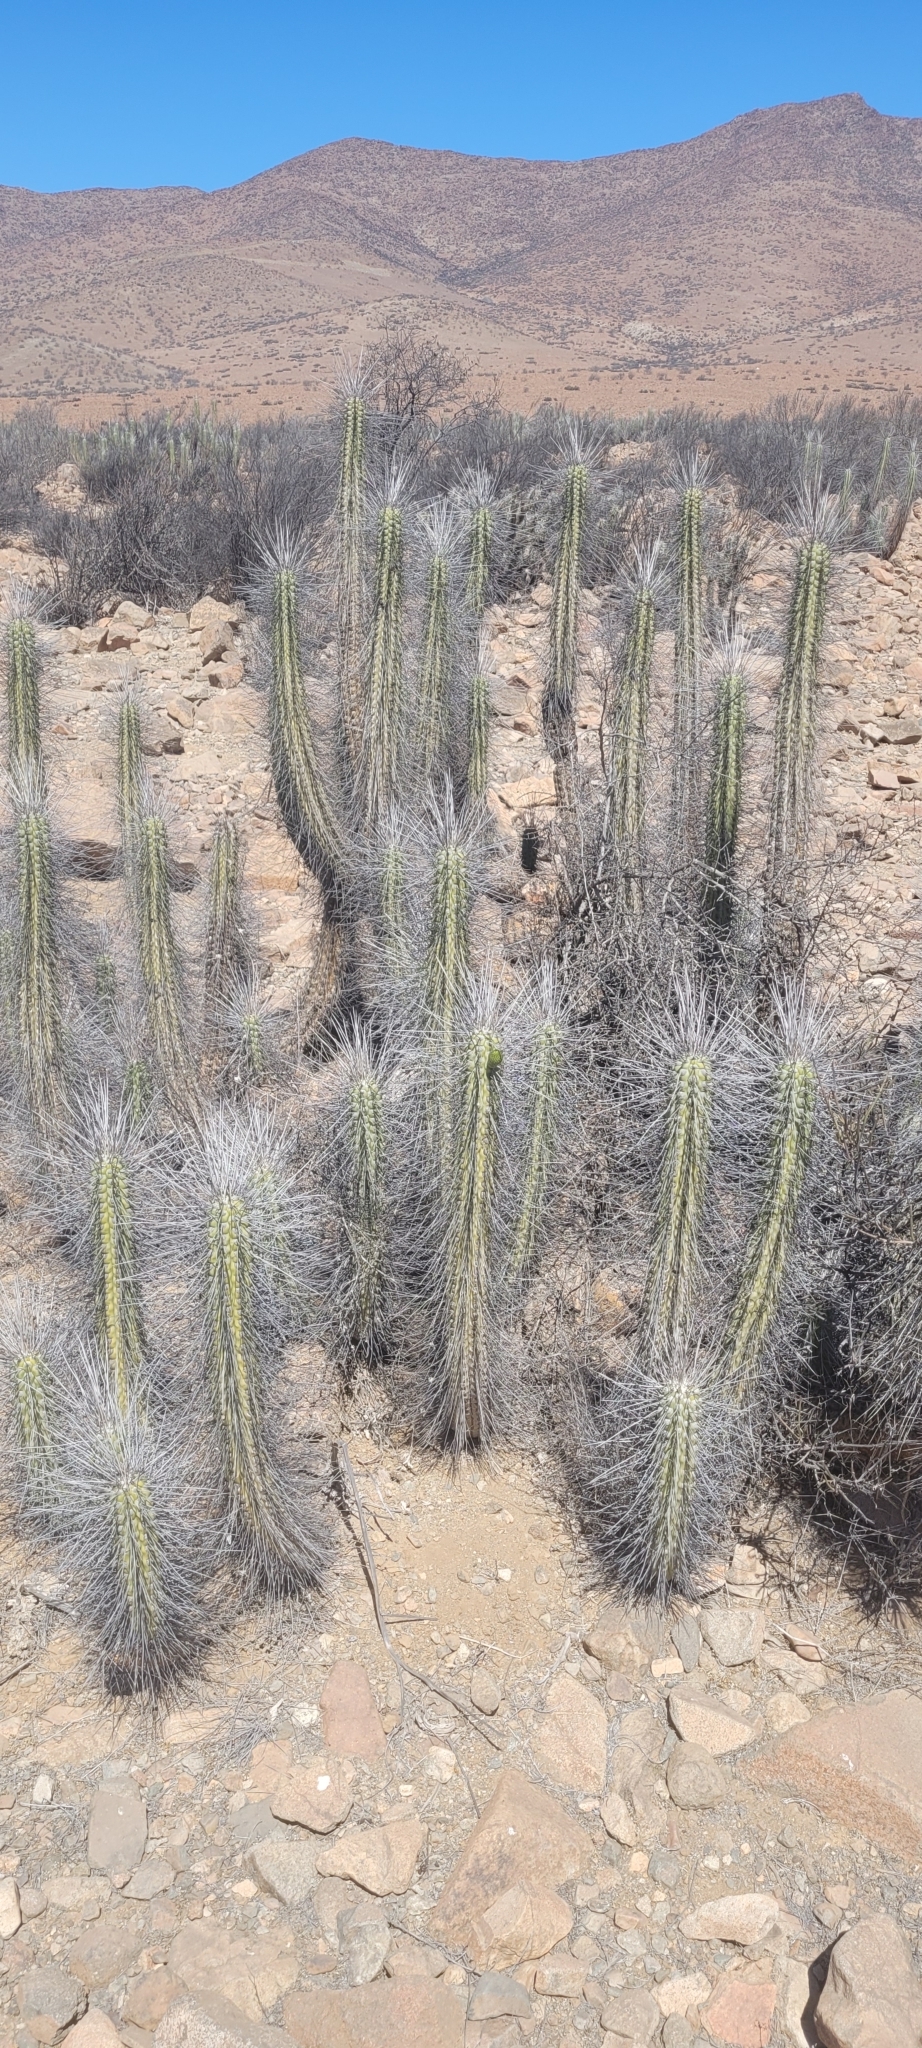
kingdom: Plantae
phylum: Tracheophyta
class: Magnoliopsida
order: Caryophyllales
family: Cactaceae
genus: Eulychnia
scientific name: Eulychnia vallenarensis
